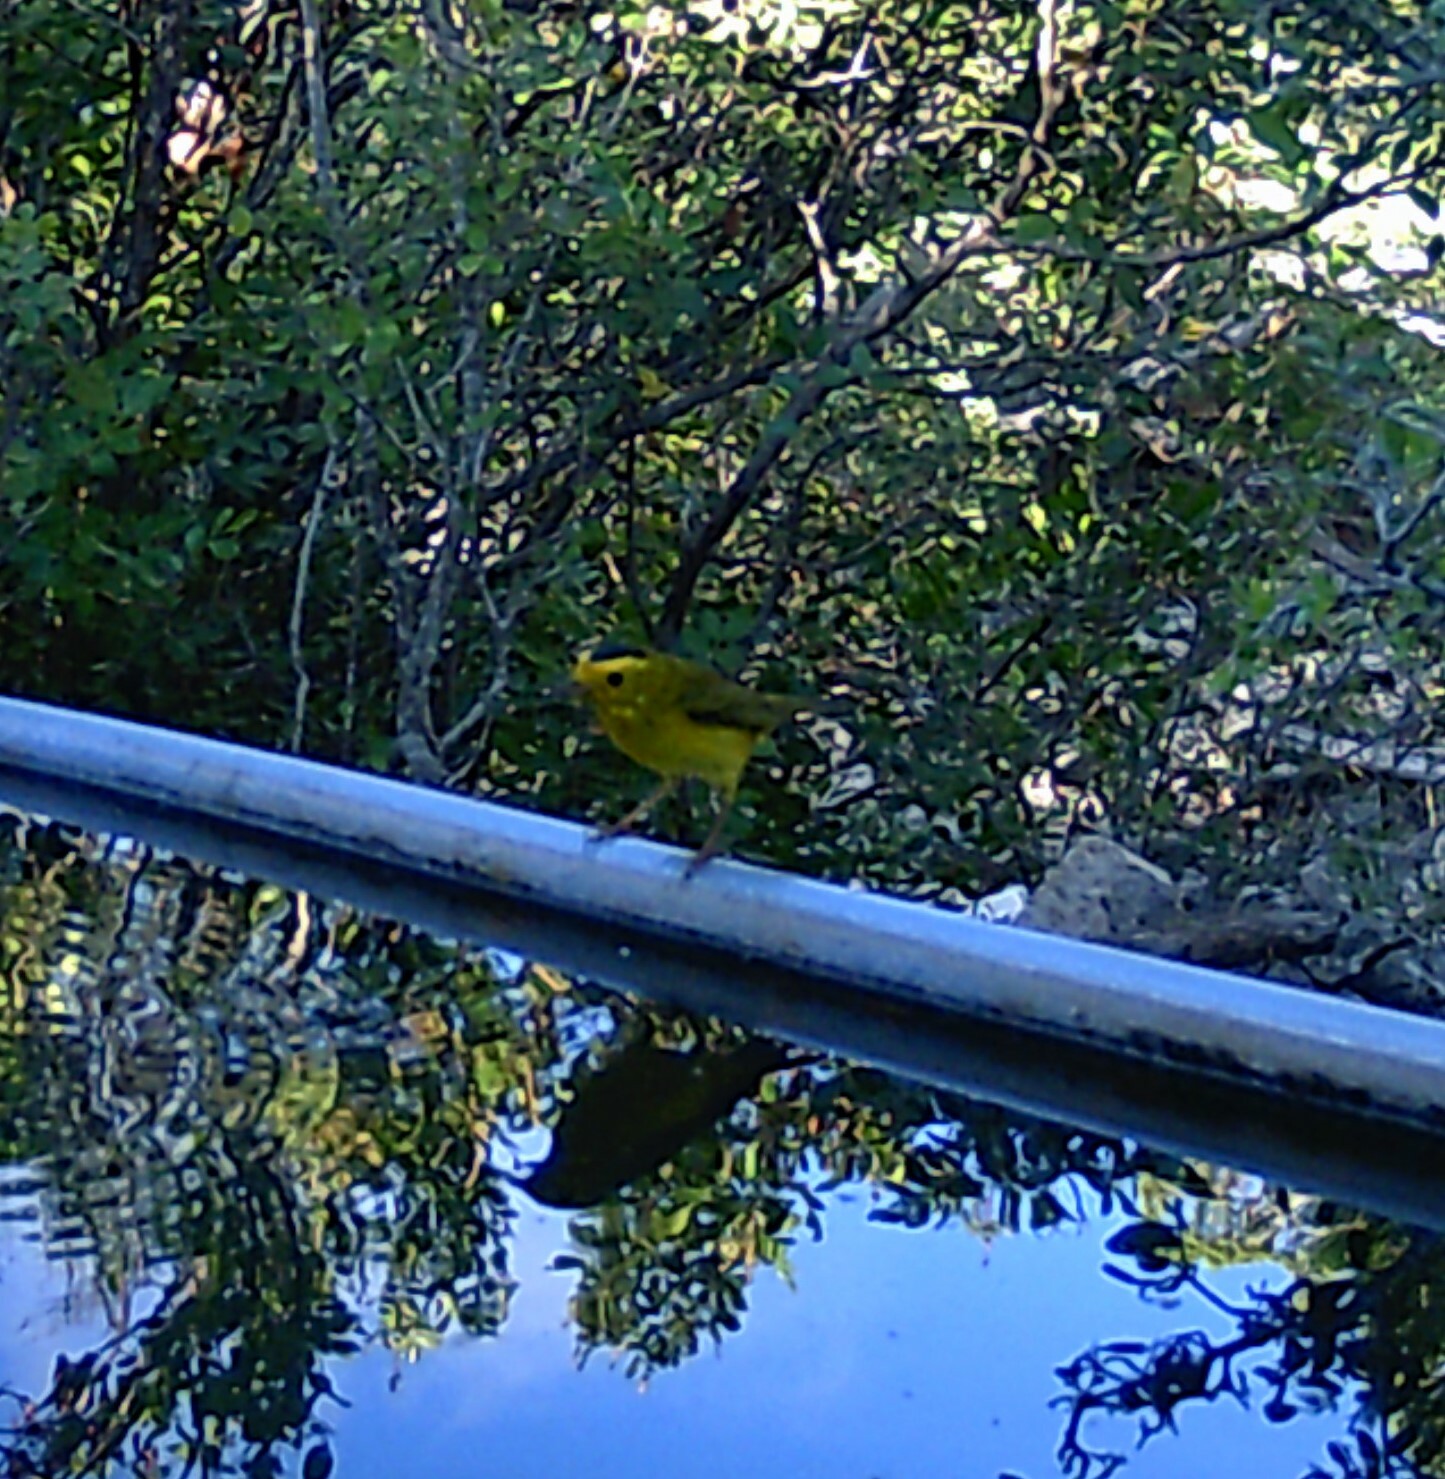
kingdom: Animalia
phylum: Chordata
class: Aves
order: Passeriformes
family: Parulidae
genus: Cardellina
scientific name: Cardellina pusilla
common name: Wilson's warbler
